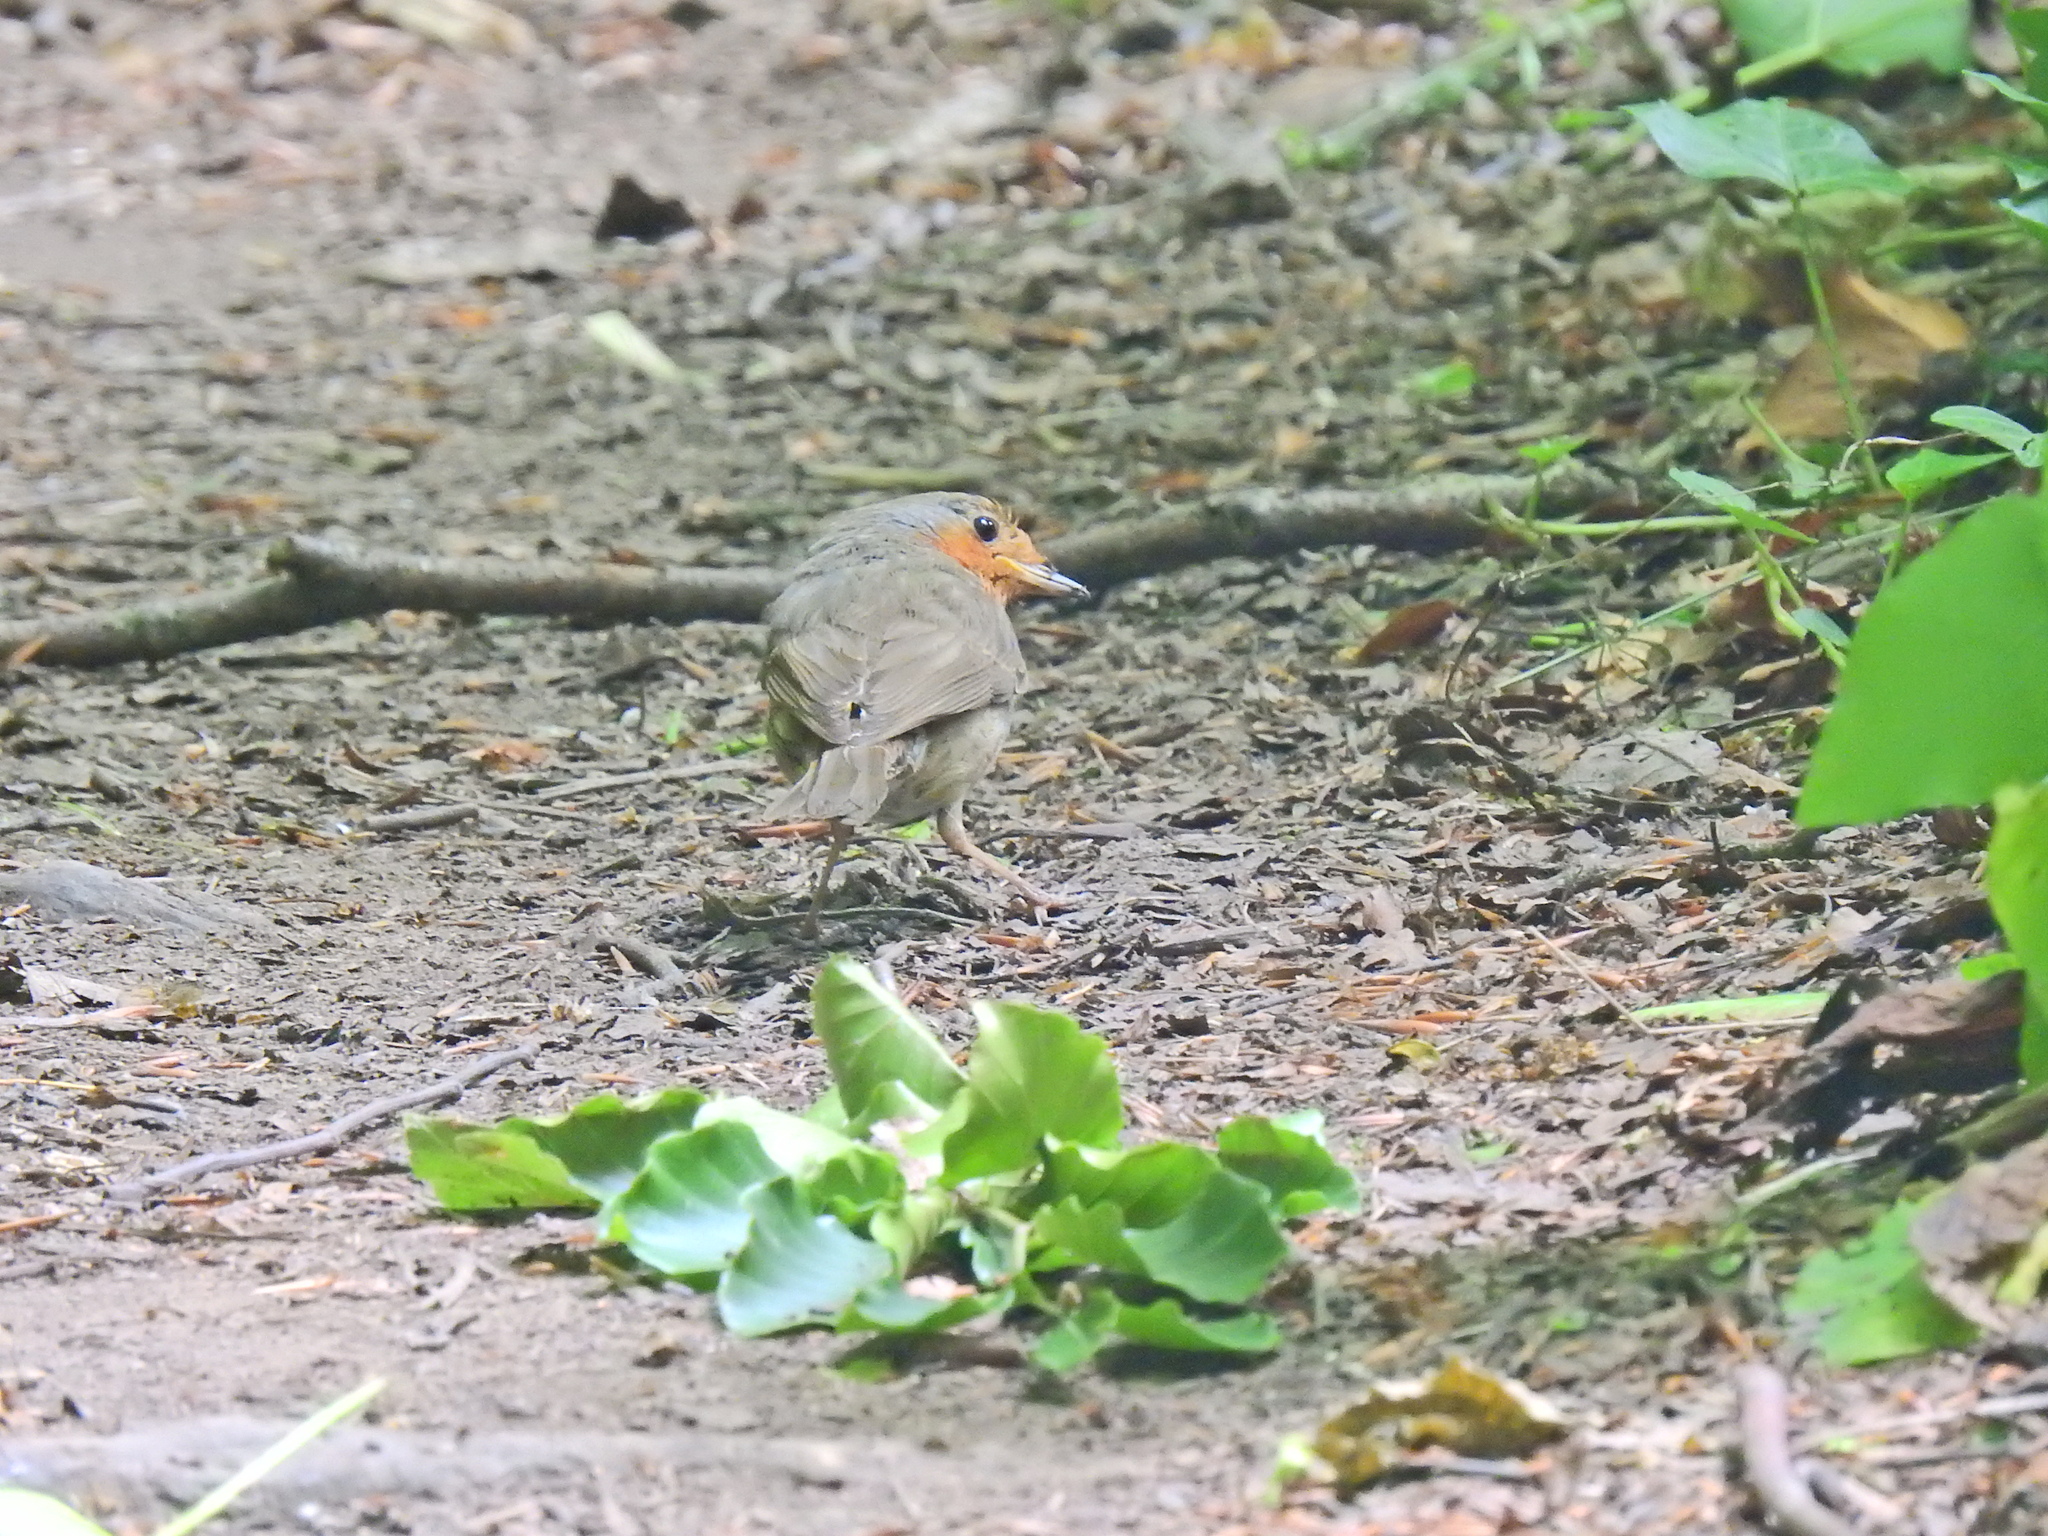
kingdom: Animalia
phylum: Chordata
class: Aves
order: Passeriformes
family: Muscicapidae
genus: Erithacus
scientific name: Erithacus rubecula
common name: European robin
